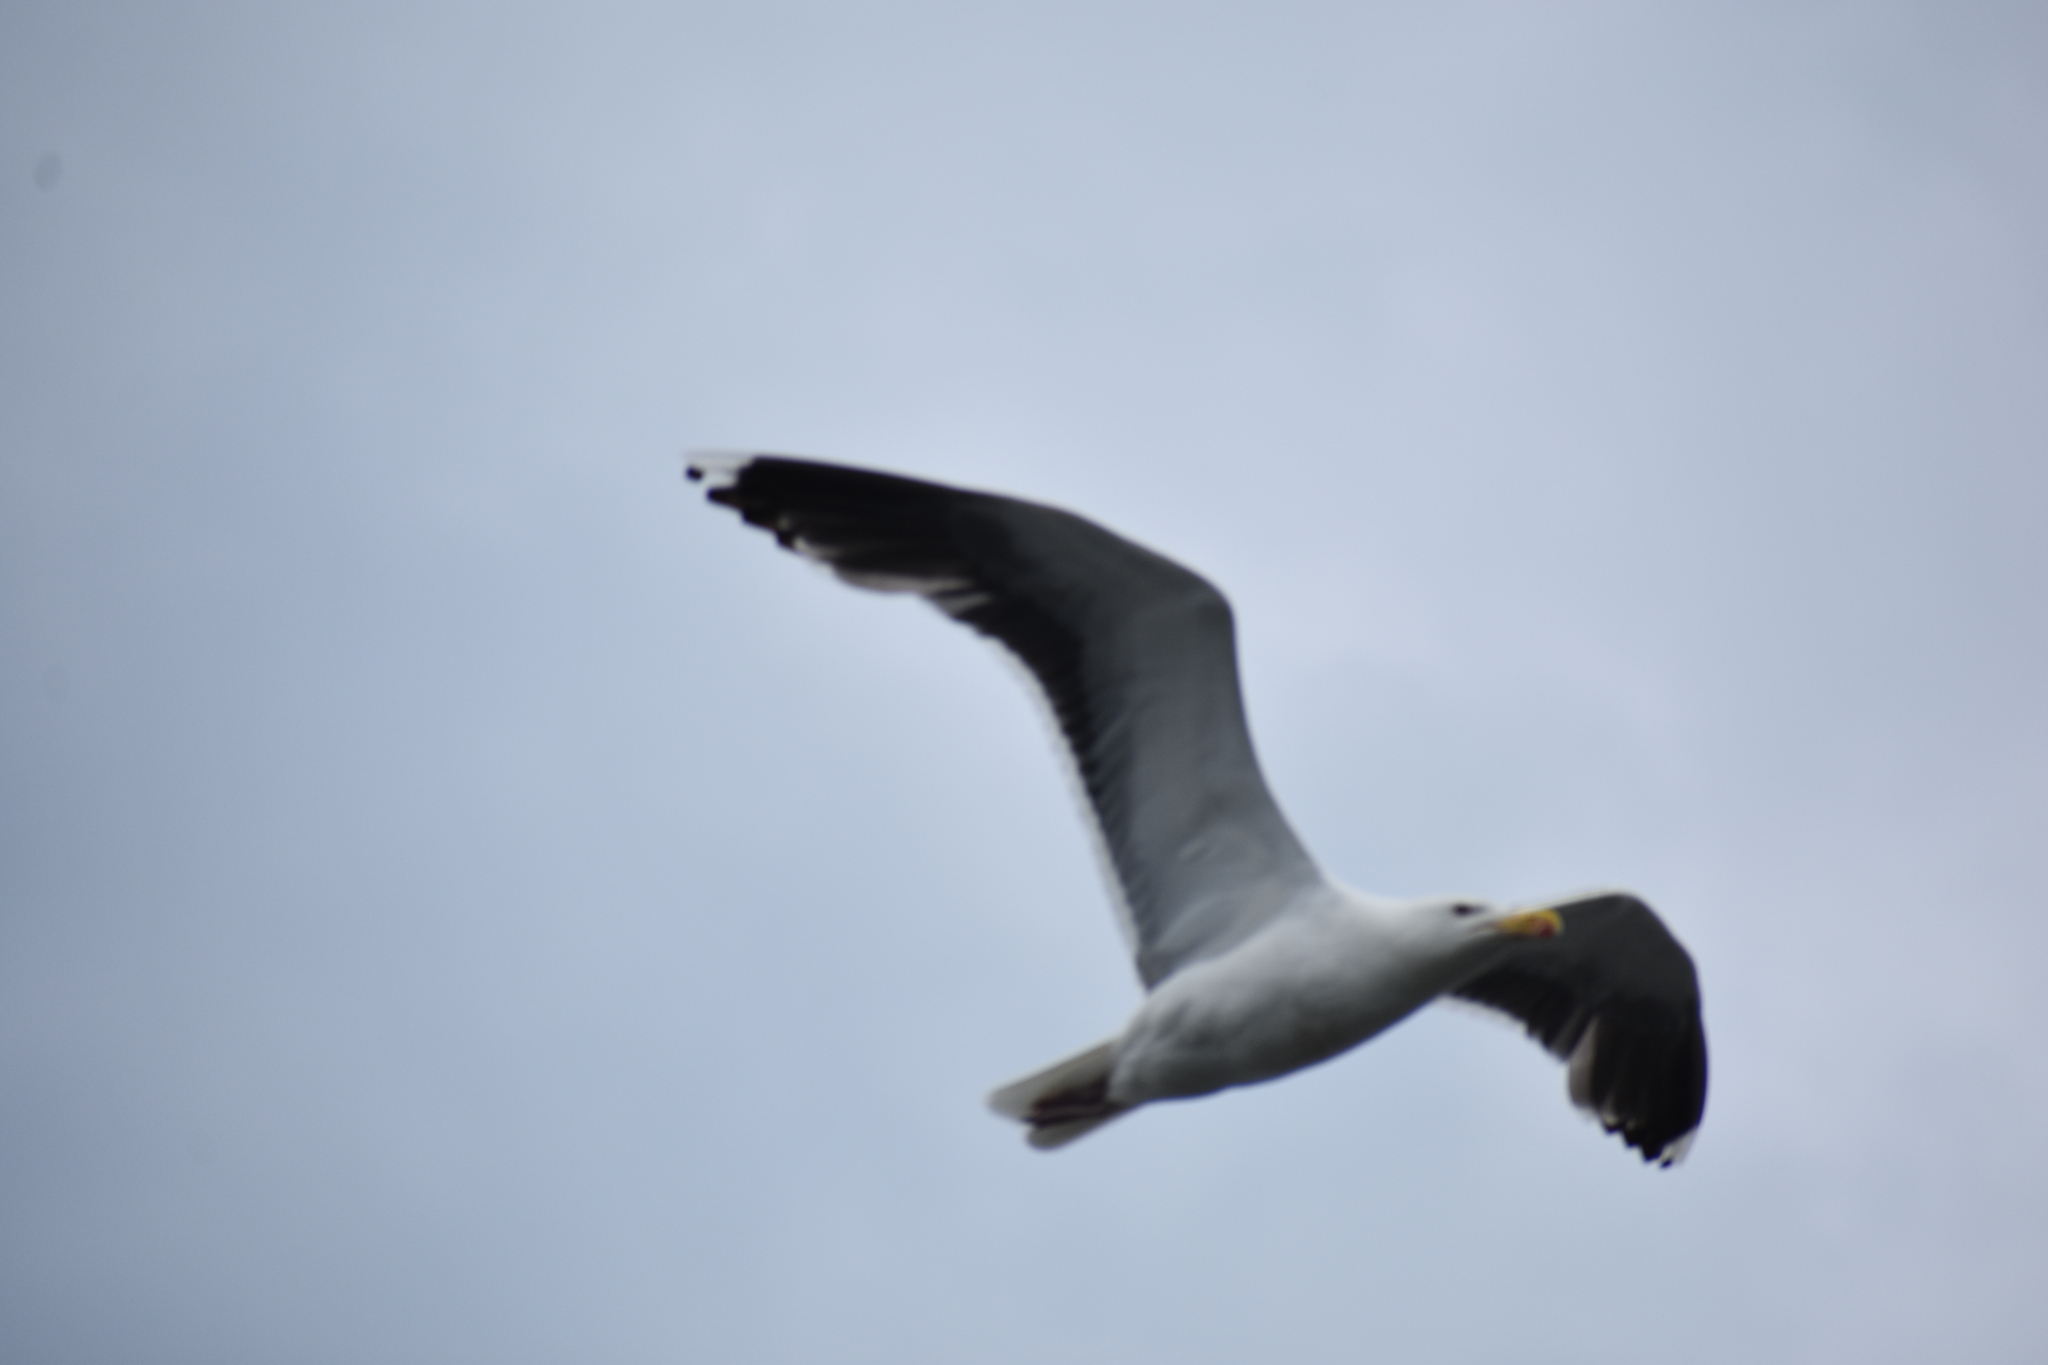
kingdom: Animalia
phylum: Chordata
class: Aves
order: Charadriiformes
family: Laridae
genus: Larus
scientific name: Larus marinus
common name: Great black-backed gull
